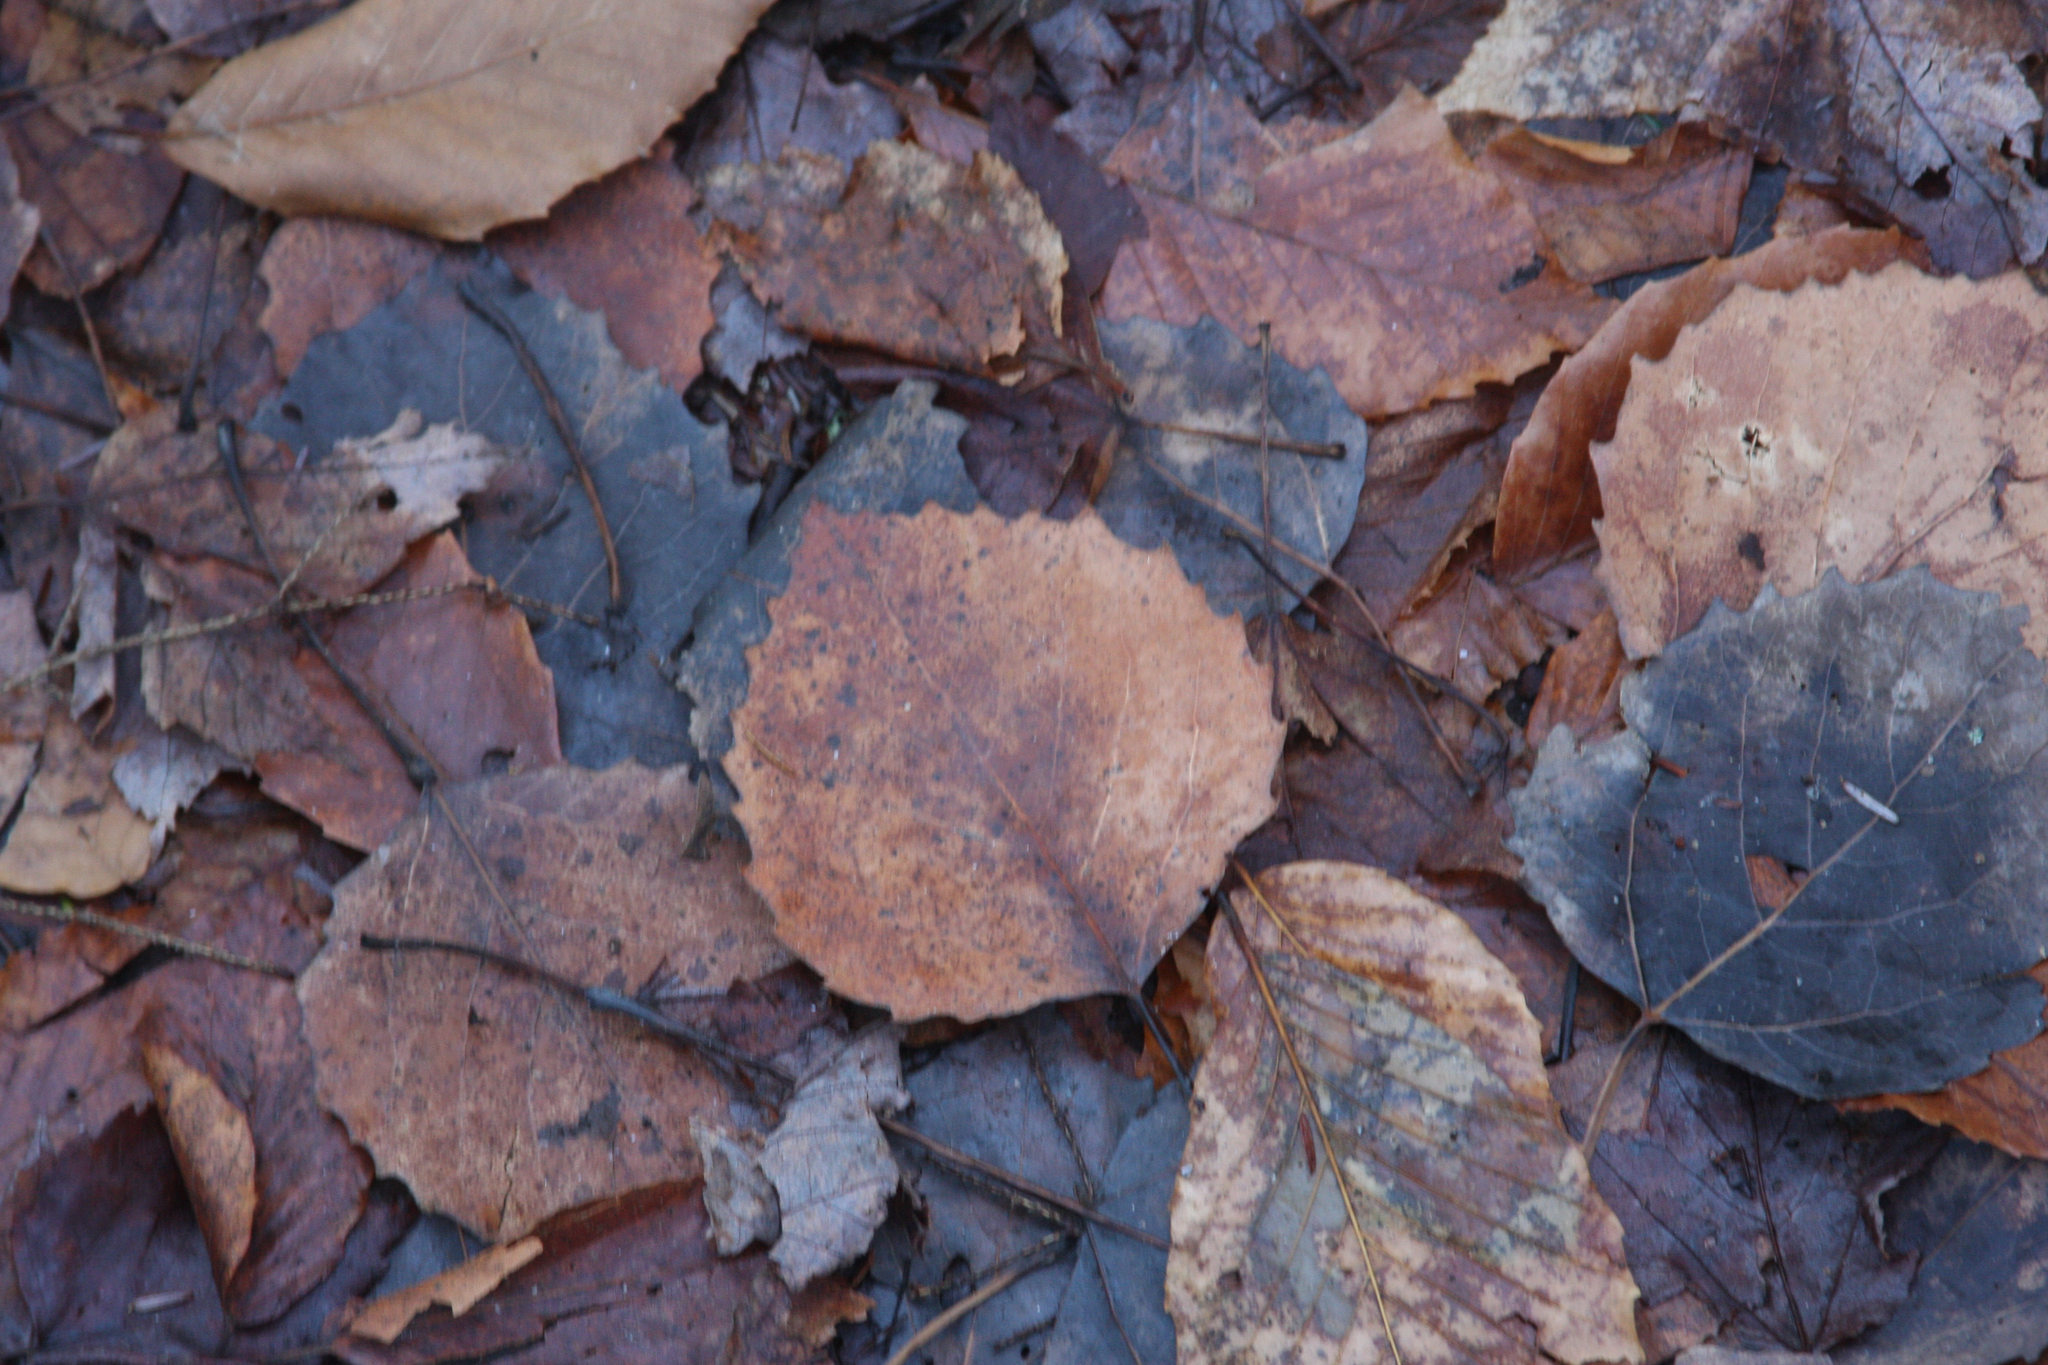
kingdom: Plantae
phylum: Tracheophyta
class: Magnoliopsida
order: Malpighiales
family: Salicaceae
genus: Populus
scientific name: Populus grandidentata
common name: Bigtooth aspen
